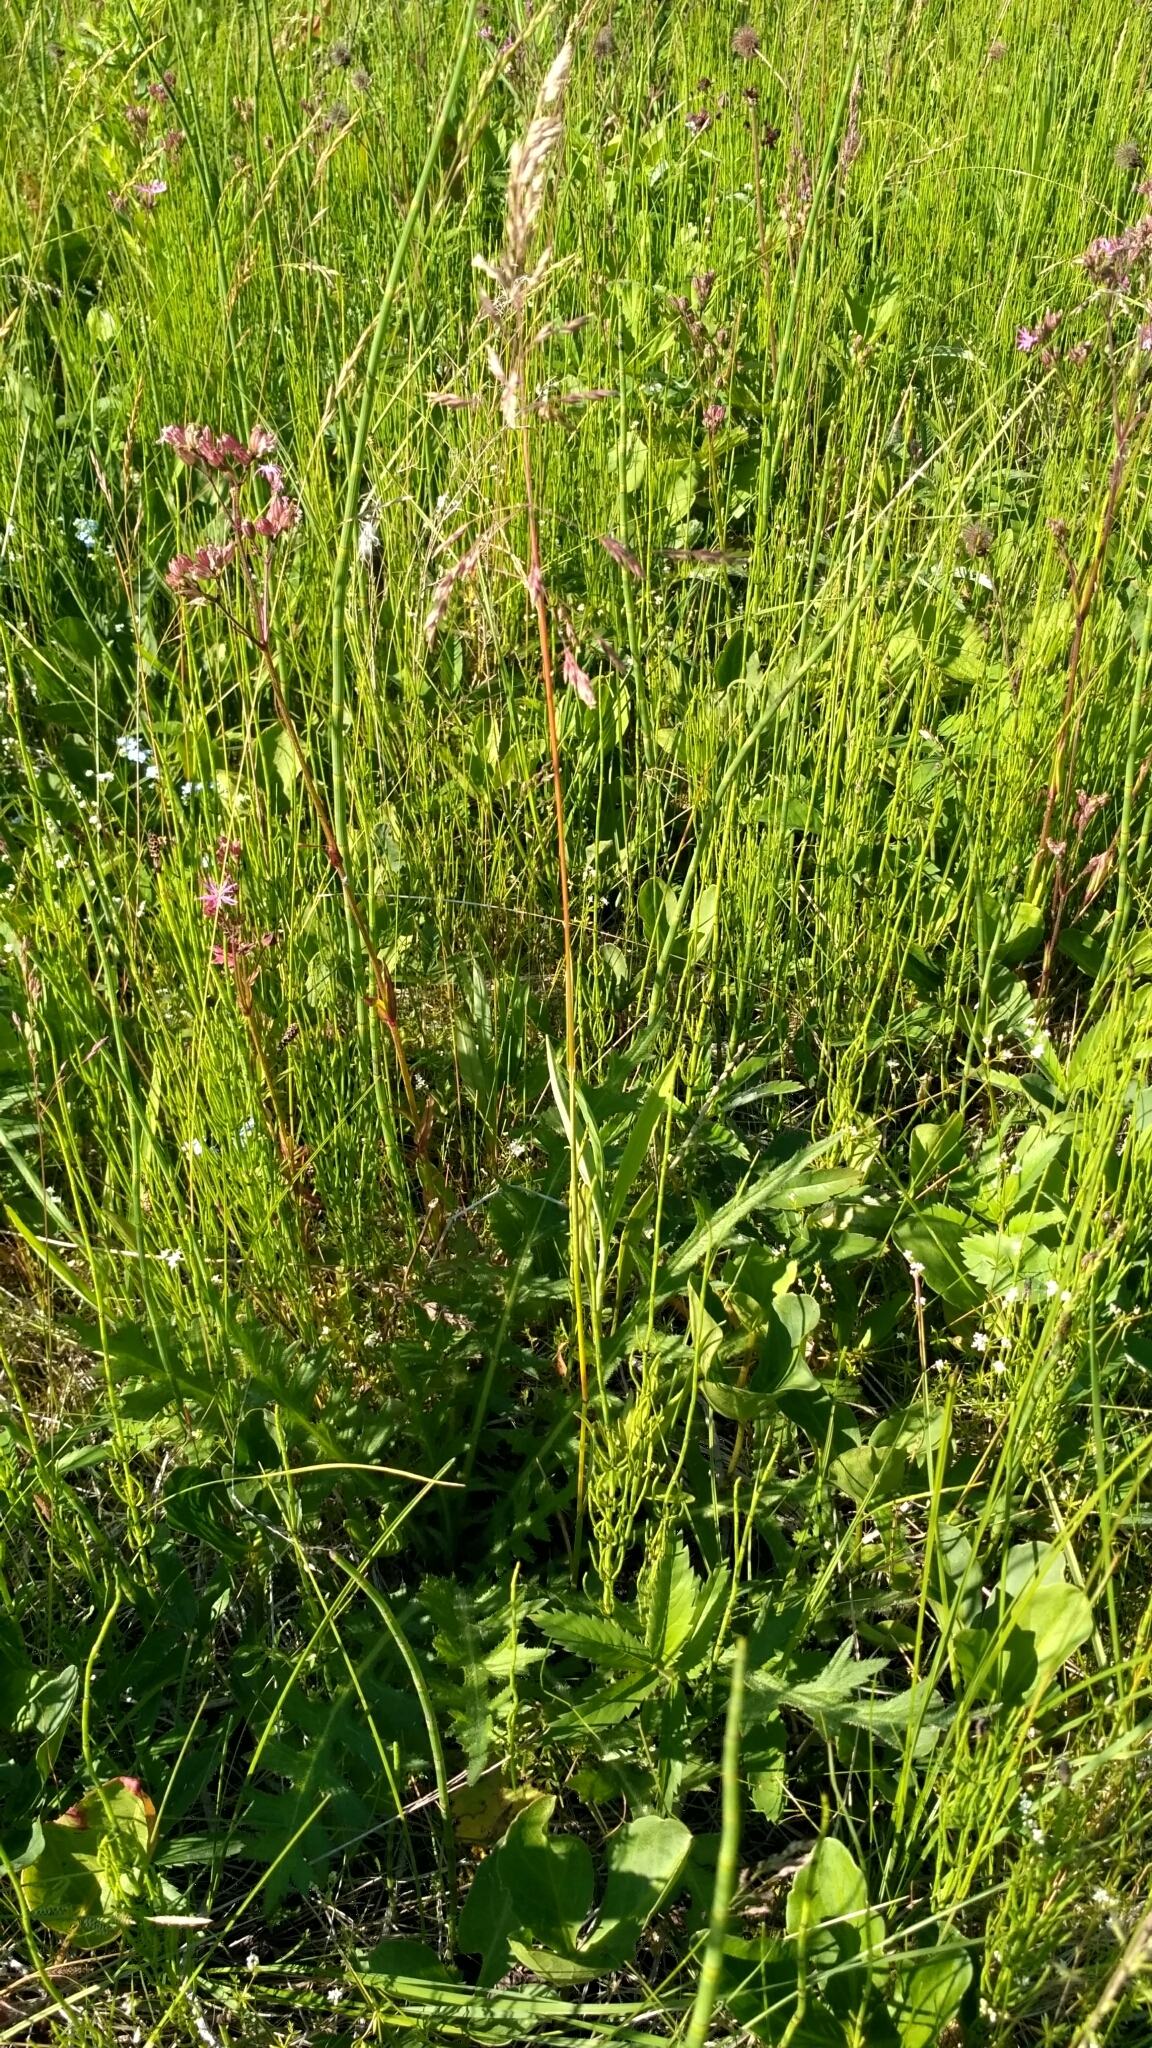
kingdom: Plantae
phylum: Tracheophyta
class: Liliopsida
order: Poales
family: Poaceae
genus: Poa
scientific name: Poa pratensis
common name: Kentucky bluegrass
